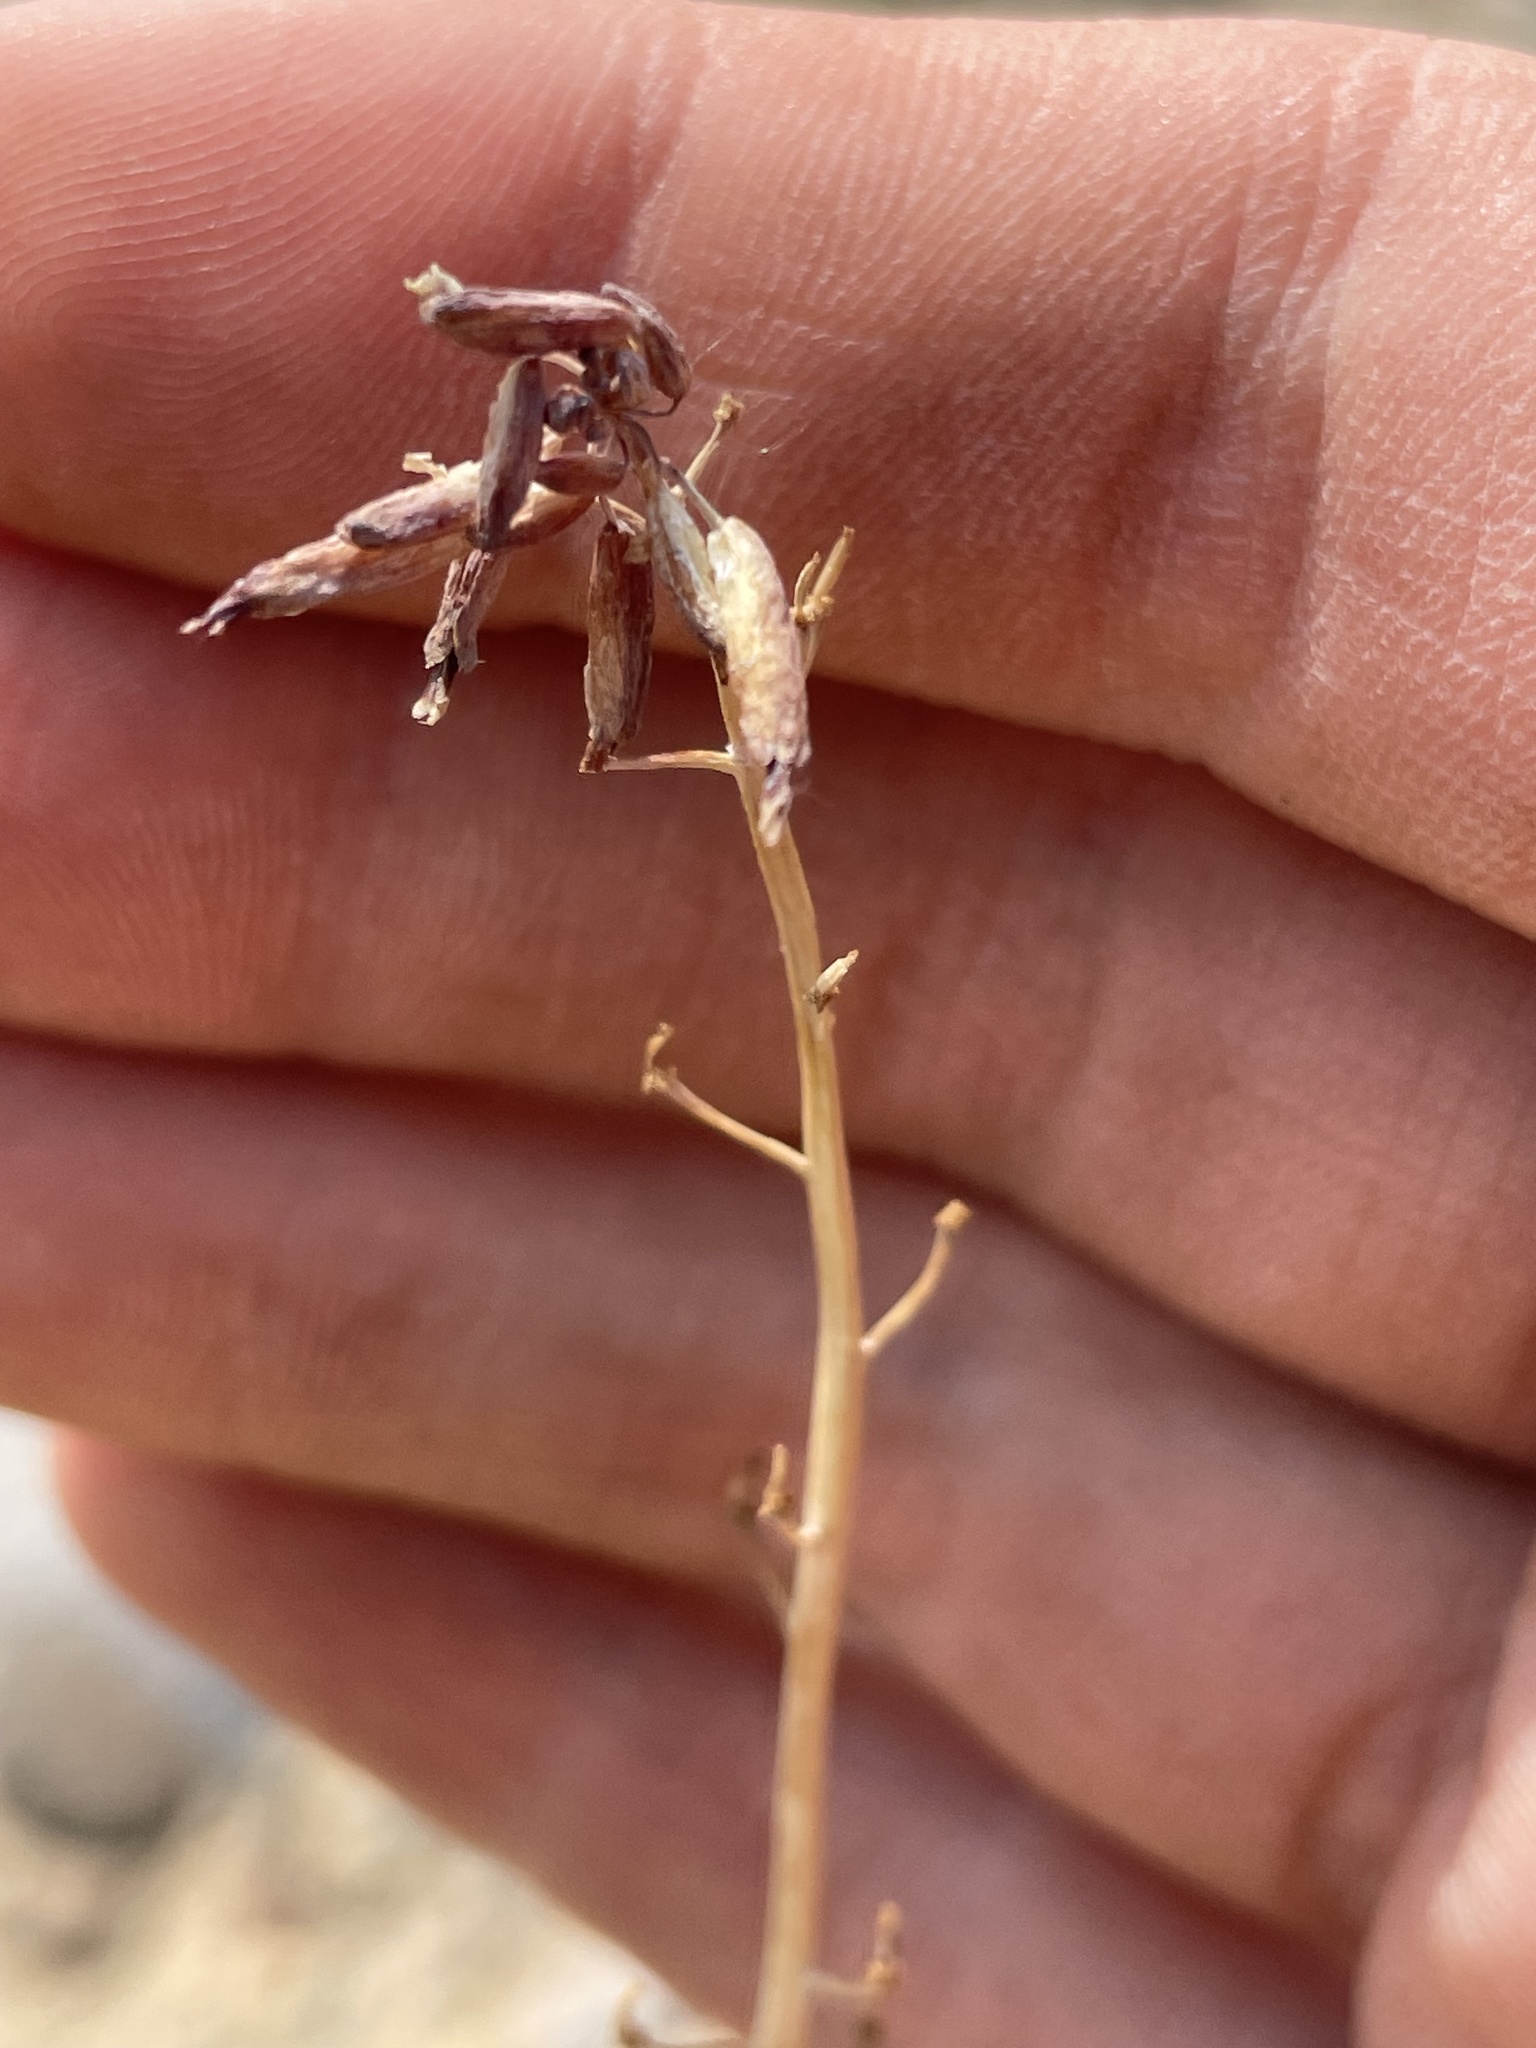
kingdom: Plantae
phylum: Tracheophyta
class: Magnoliopsida
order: Brassicales
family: Brassicaceae
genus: Streptanthus
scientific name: Streptanthus cordatus
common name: Heart-leaf jewel-flower
